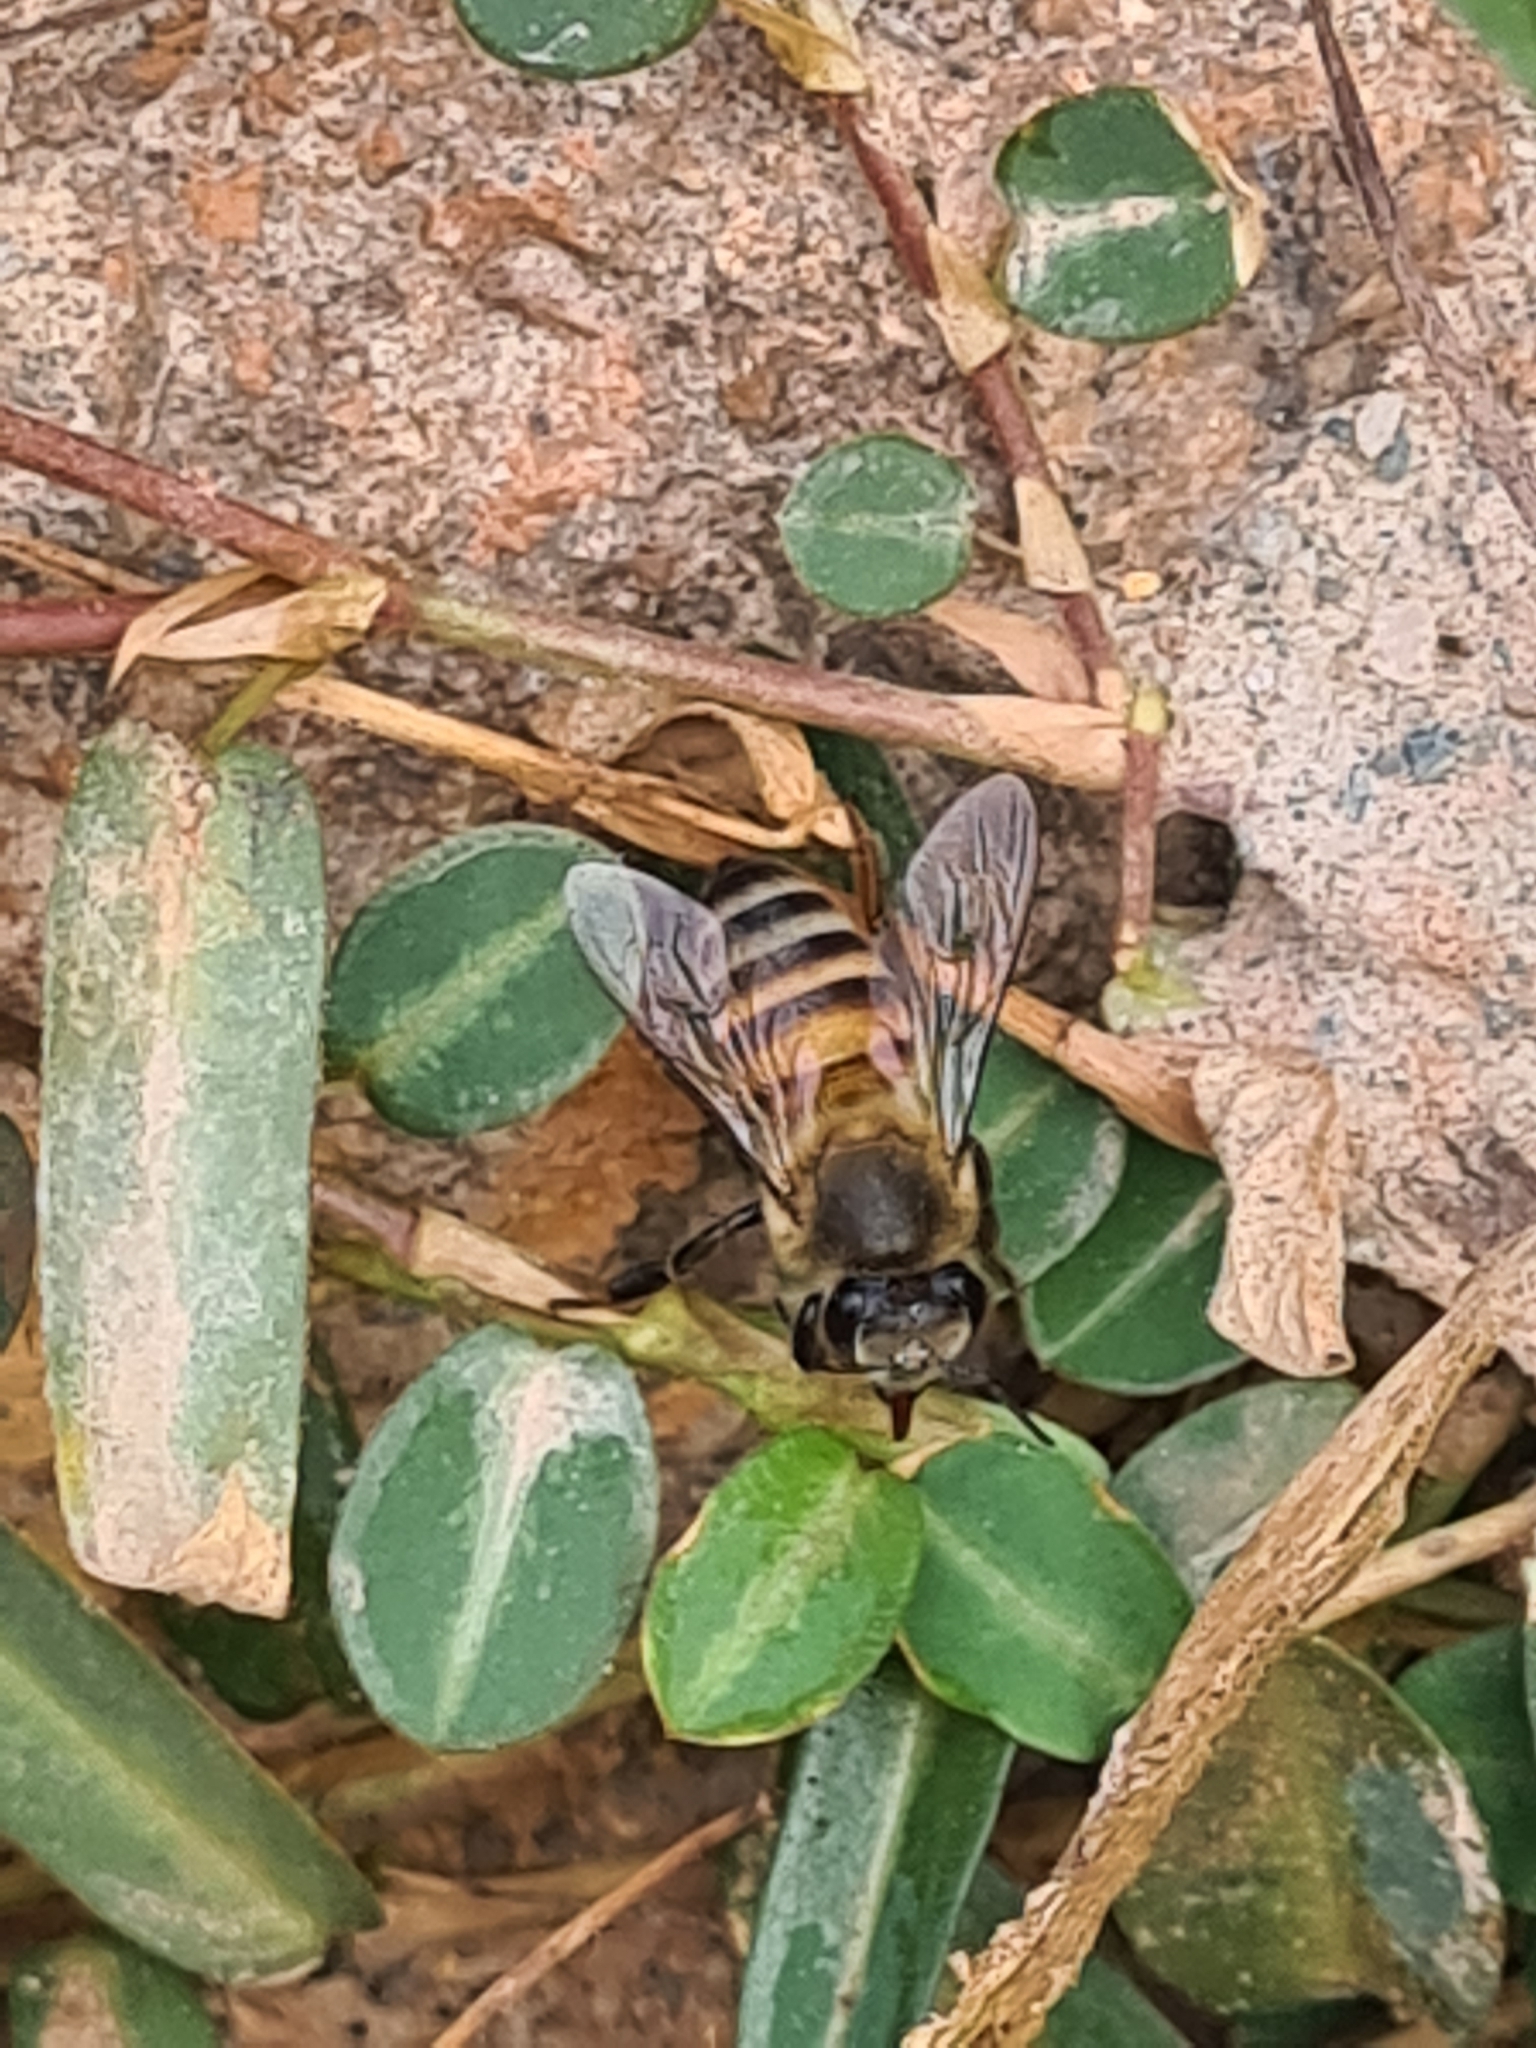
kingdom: Animalia
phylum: Arthropoda
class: Insecta
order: Hymenoptera
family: Apidae
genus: Apis
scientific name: Apis mellifera
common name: Honey bee
